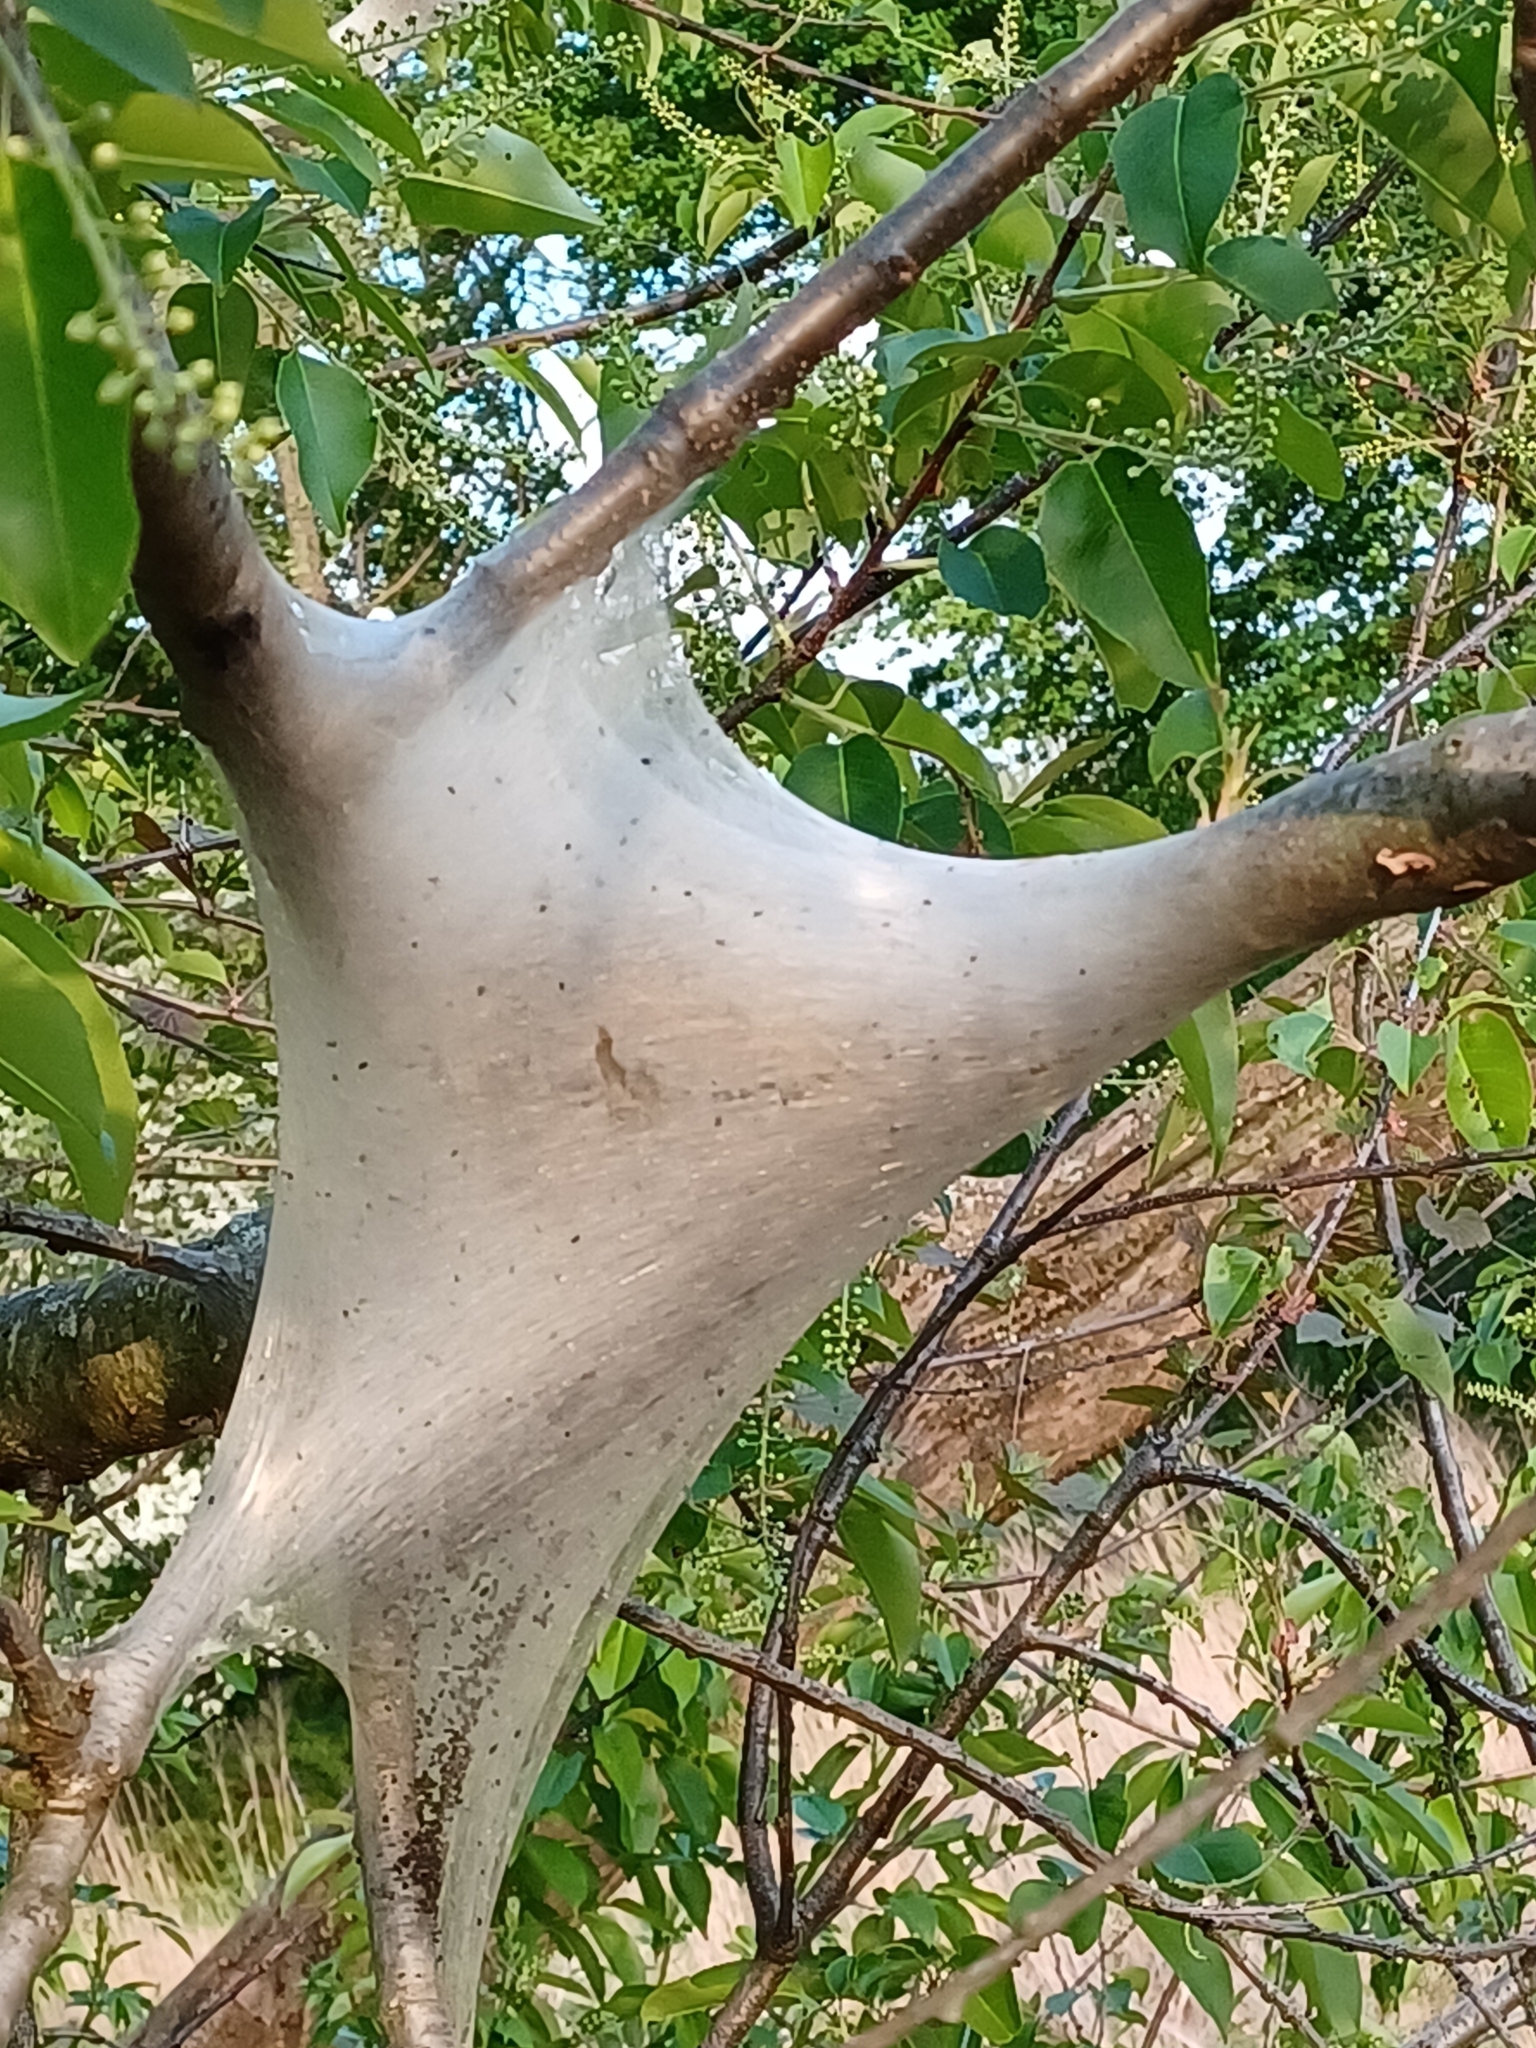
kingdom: Animalia
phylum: Arthropoda
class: Insecta
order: Lepidoptera
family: Lasiocampidae
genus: Malacosoma
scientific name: Malacosoma americana
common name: Eastern tent caterpillar moth
